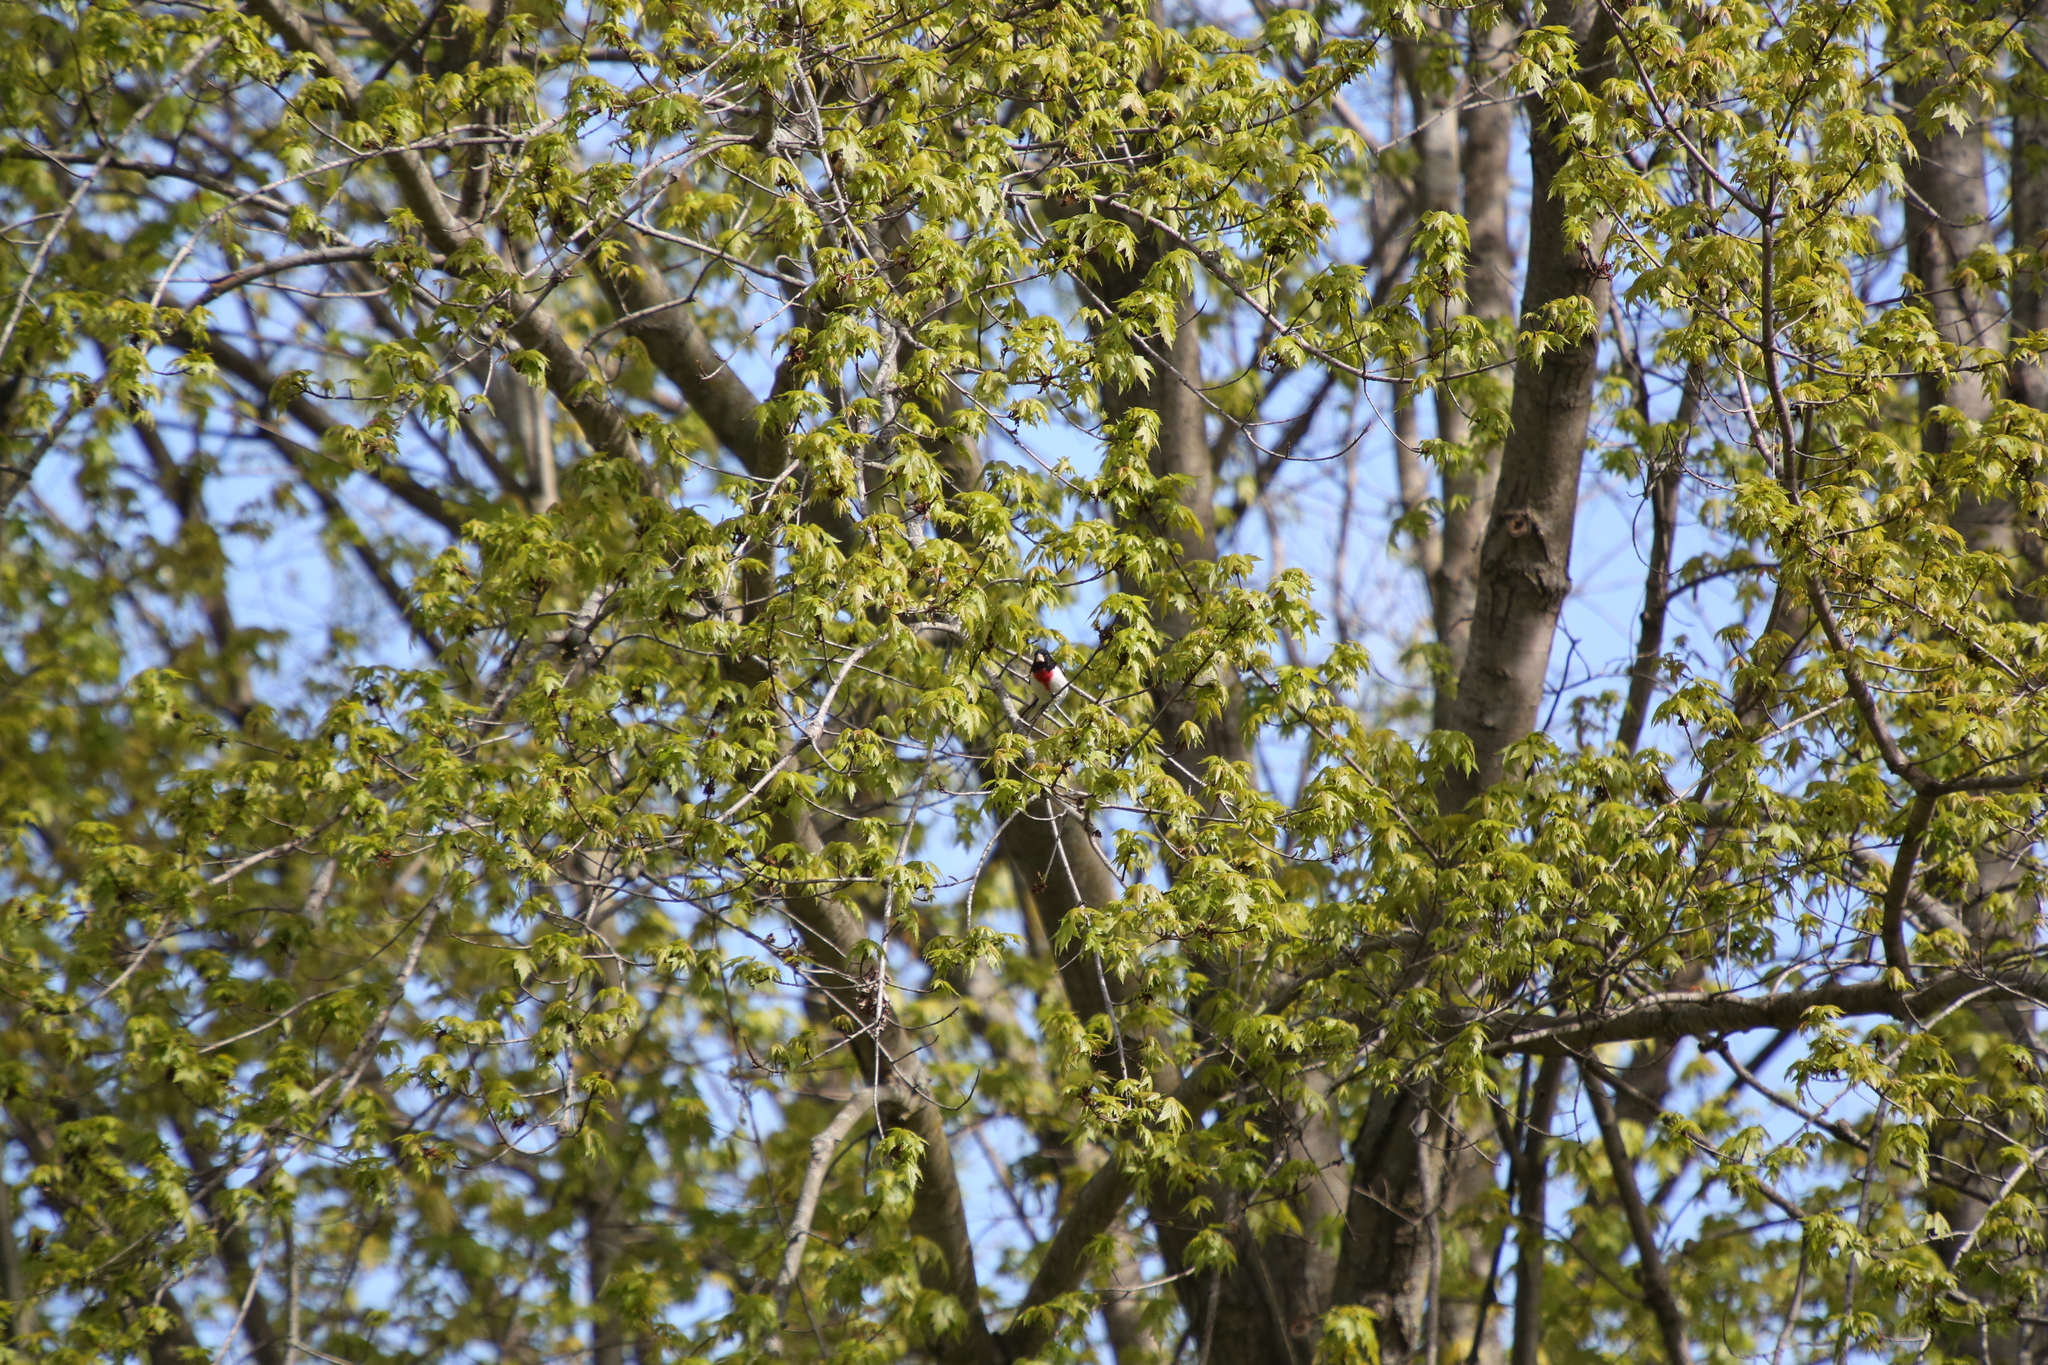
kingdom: Animalia
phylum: Chordata
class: Aves
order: Passeriformes
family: Cardinalidae
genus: Pheucticus
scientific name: Pheucticus ludovicianus
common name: Rose-breasted grosbeak
